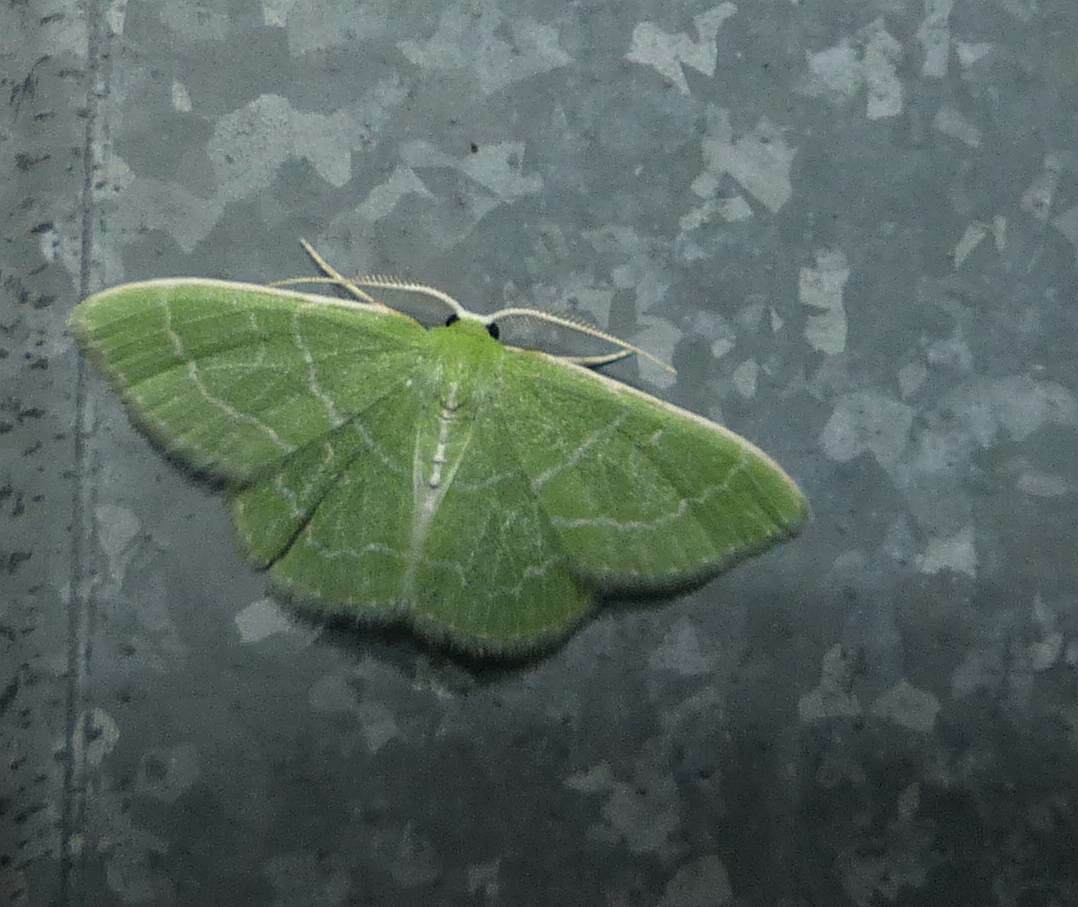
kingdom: Animalia
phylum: Arthropoda
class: Insecta
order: Lepidoptera
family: Geometridae
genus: Synchlora
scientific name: Synchlora aerata
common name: Wavy-lined emerald
